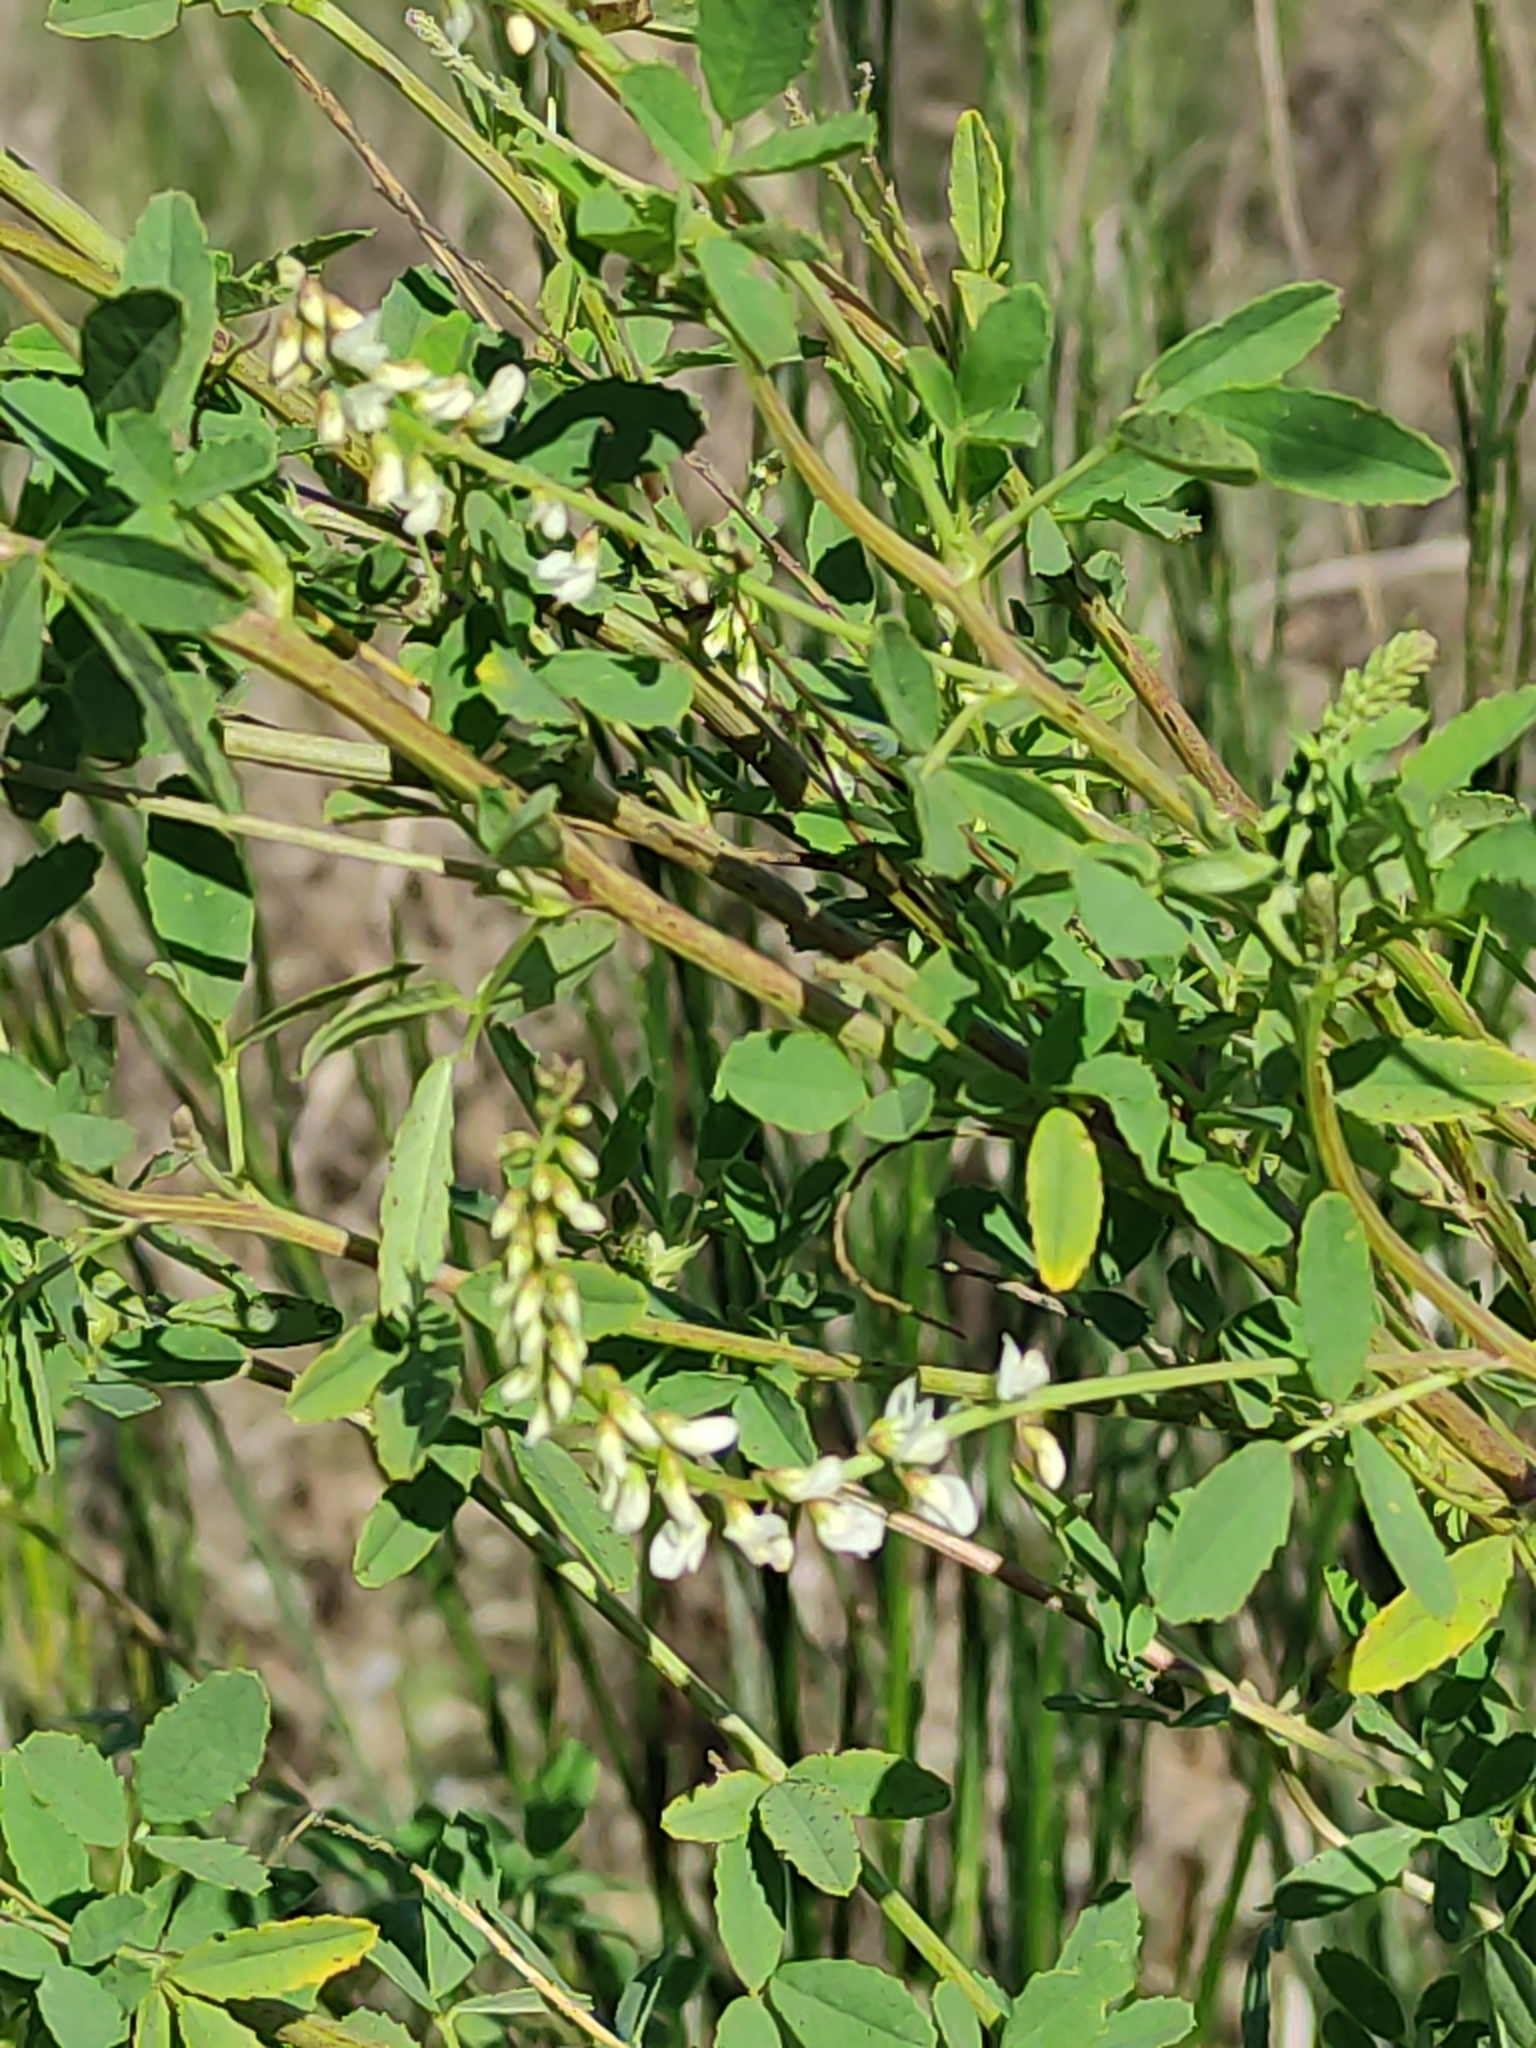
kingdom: Plantae
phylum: Tracheophyta
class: Magnoliopsida
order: Fabales
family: Fabaceae
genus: Melilotus
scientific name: Melilotus albus
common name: White melilot
